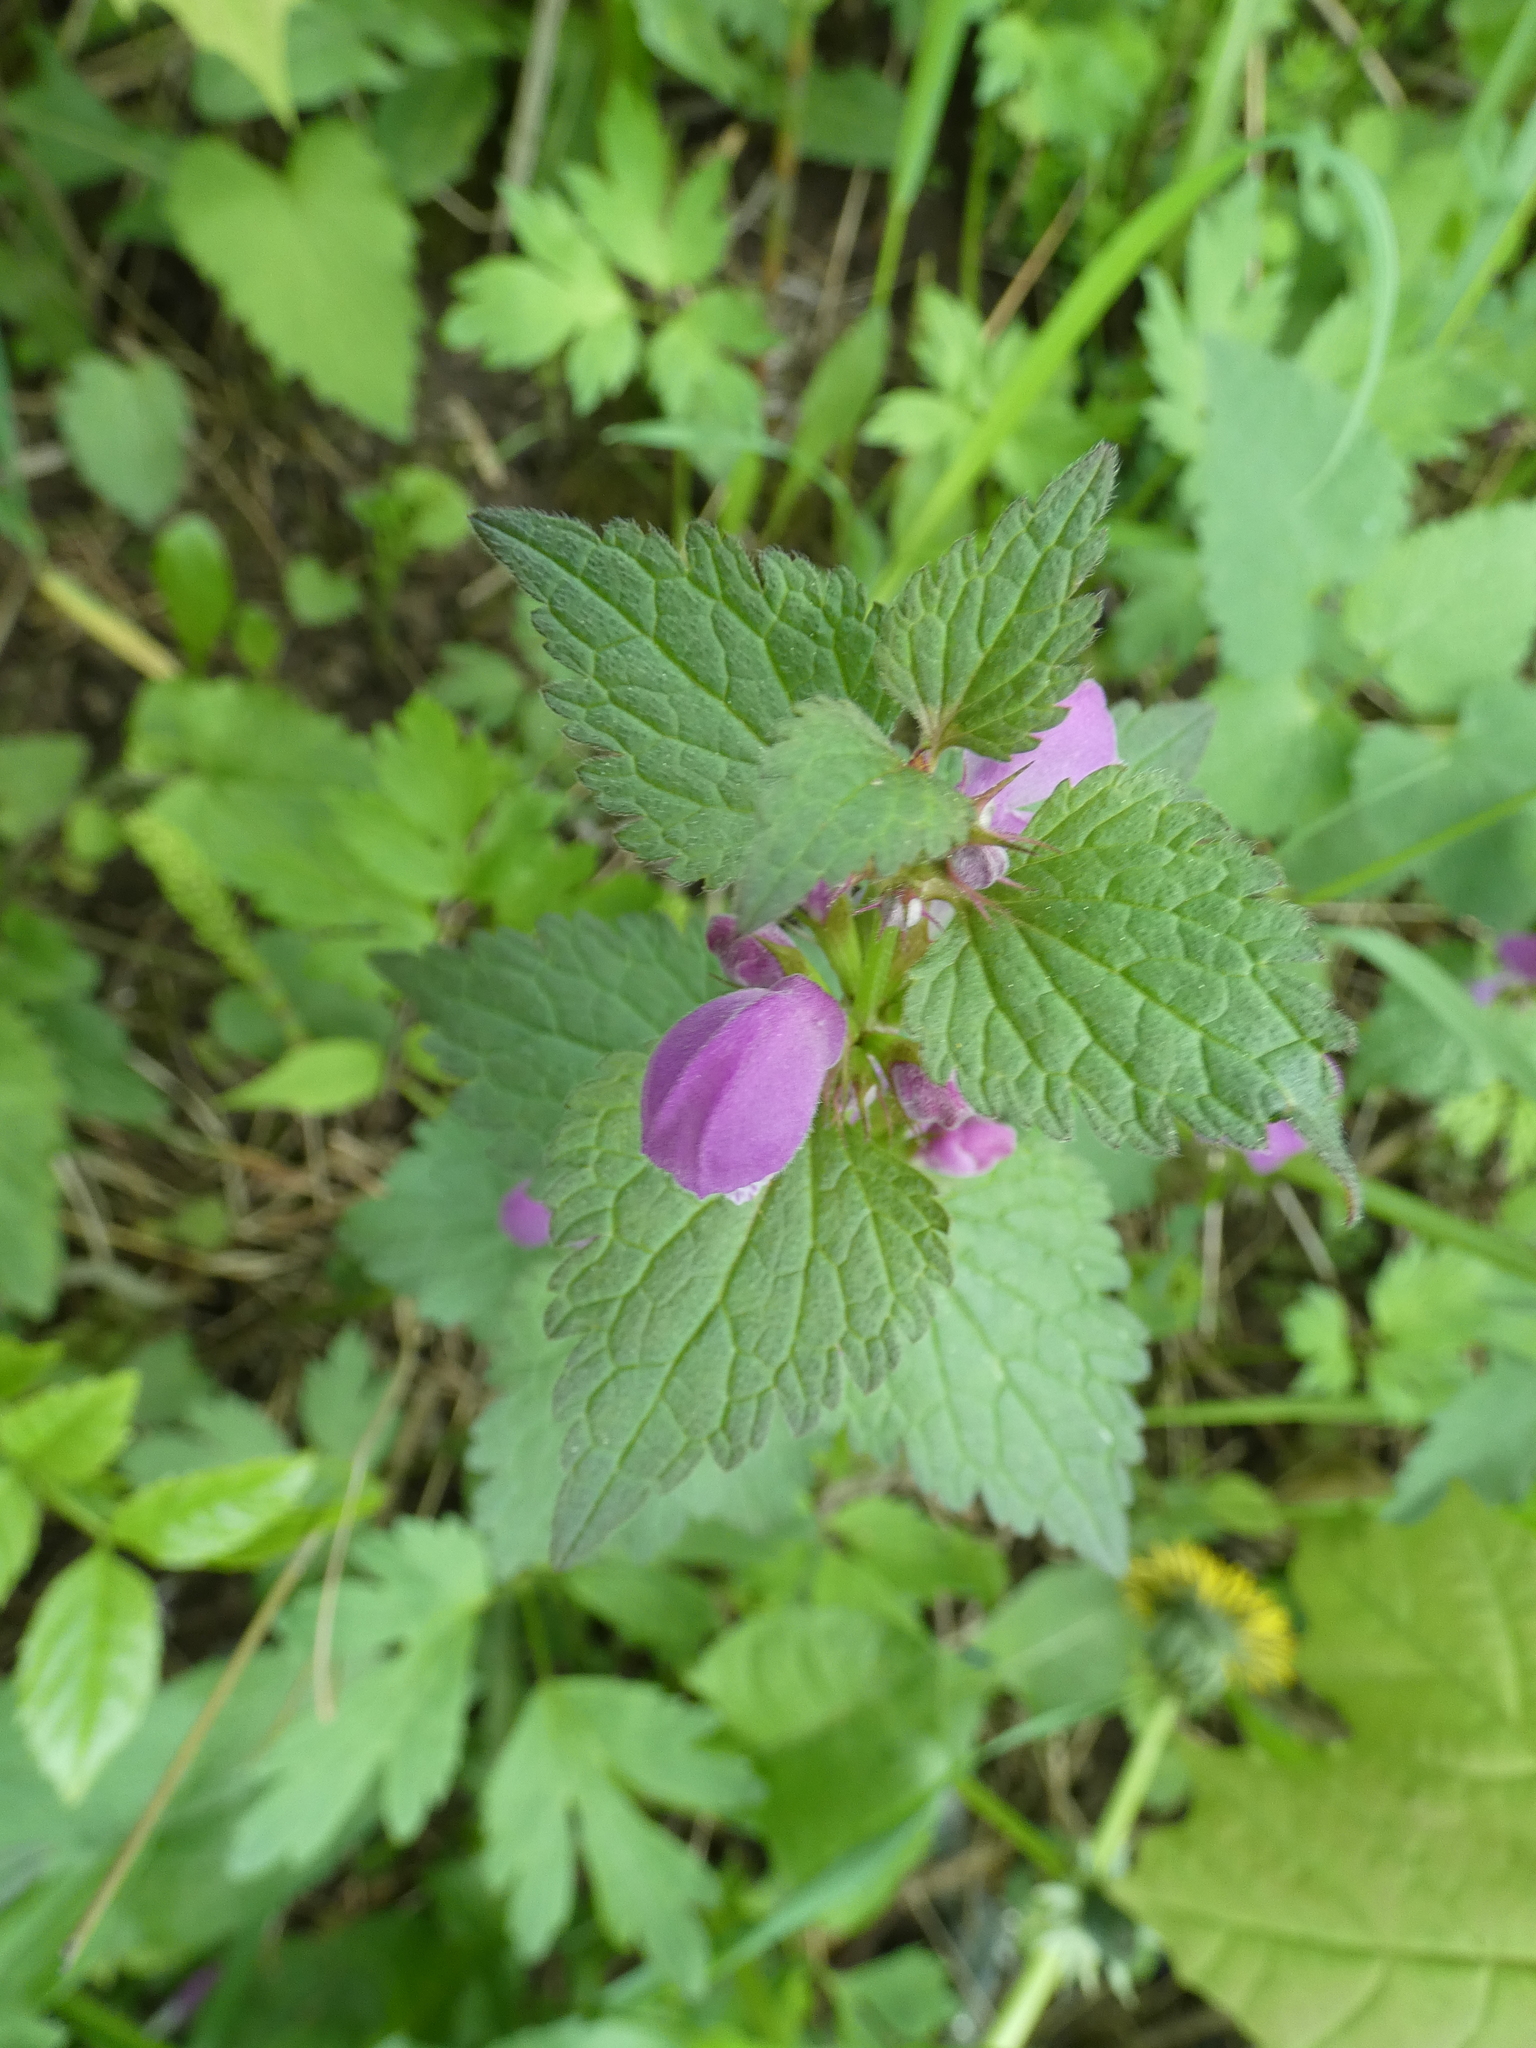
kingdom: Plantae
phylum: Tracheophyta
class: Magnoliopsida
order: Lamiales
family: Lamiaceae
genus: Lamium
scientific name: Lamium maculatum
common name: Spotted dead-nettle
